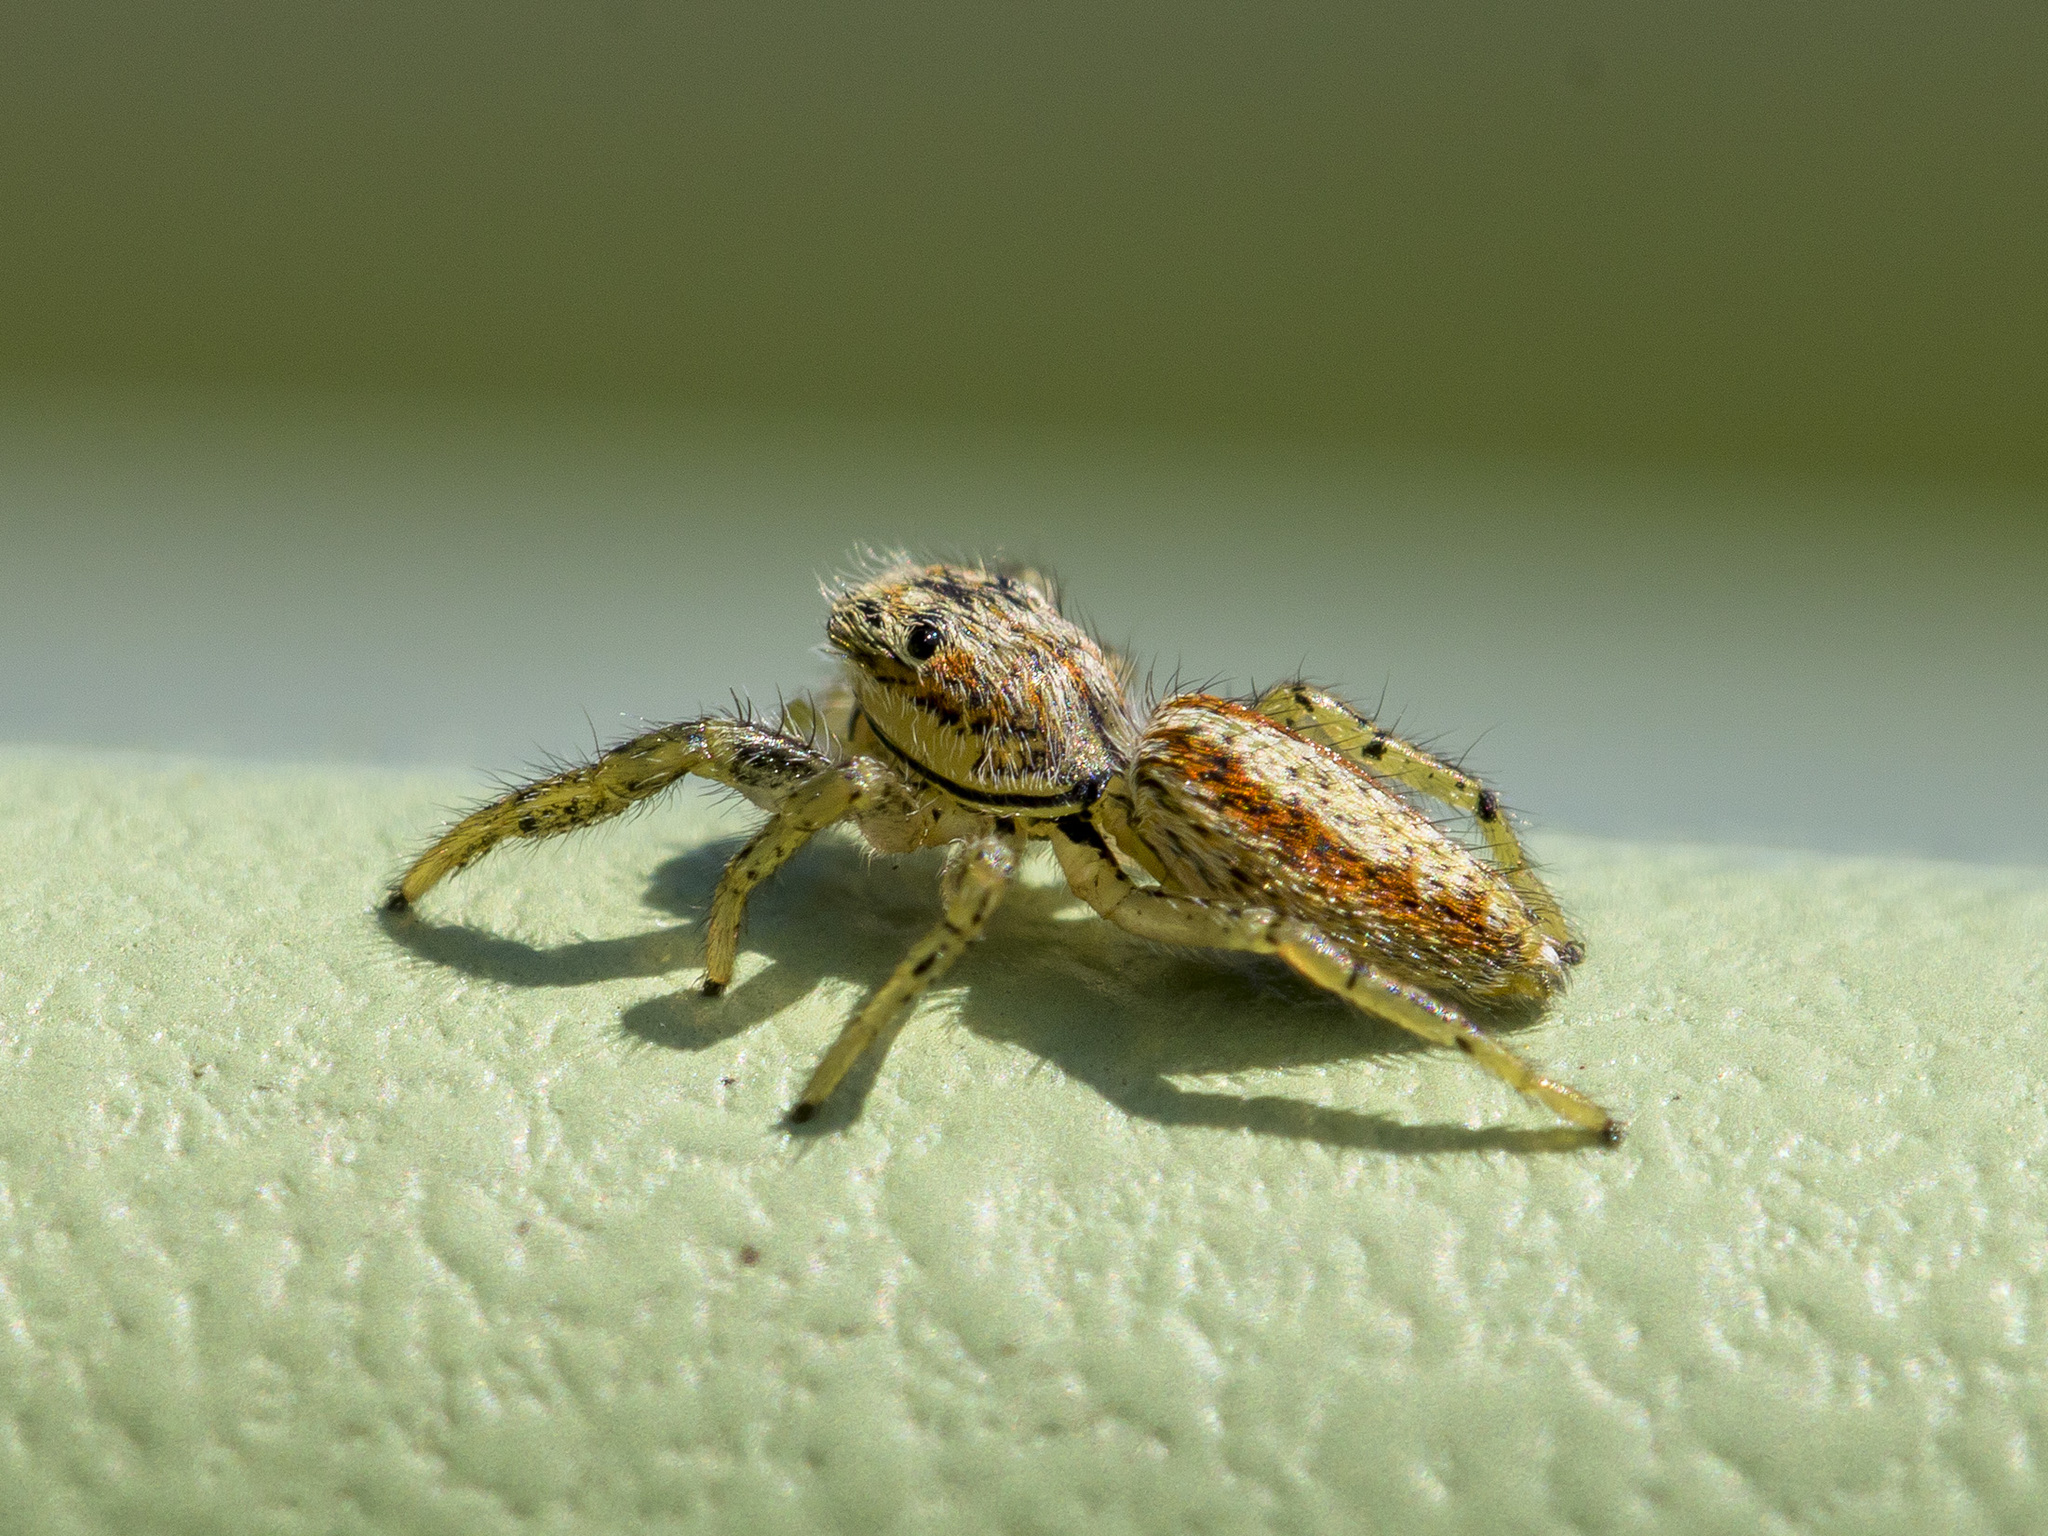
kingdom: Animalia
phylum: Arthropoda
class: Arachnida
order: Araneae
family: Salticidae
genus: Marpissa
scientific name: Marpissa pomatia
